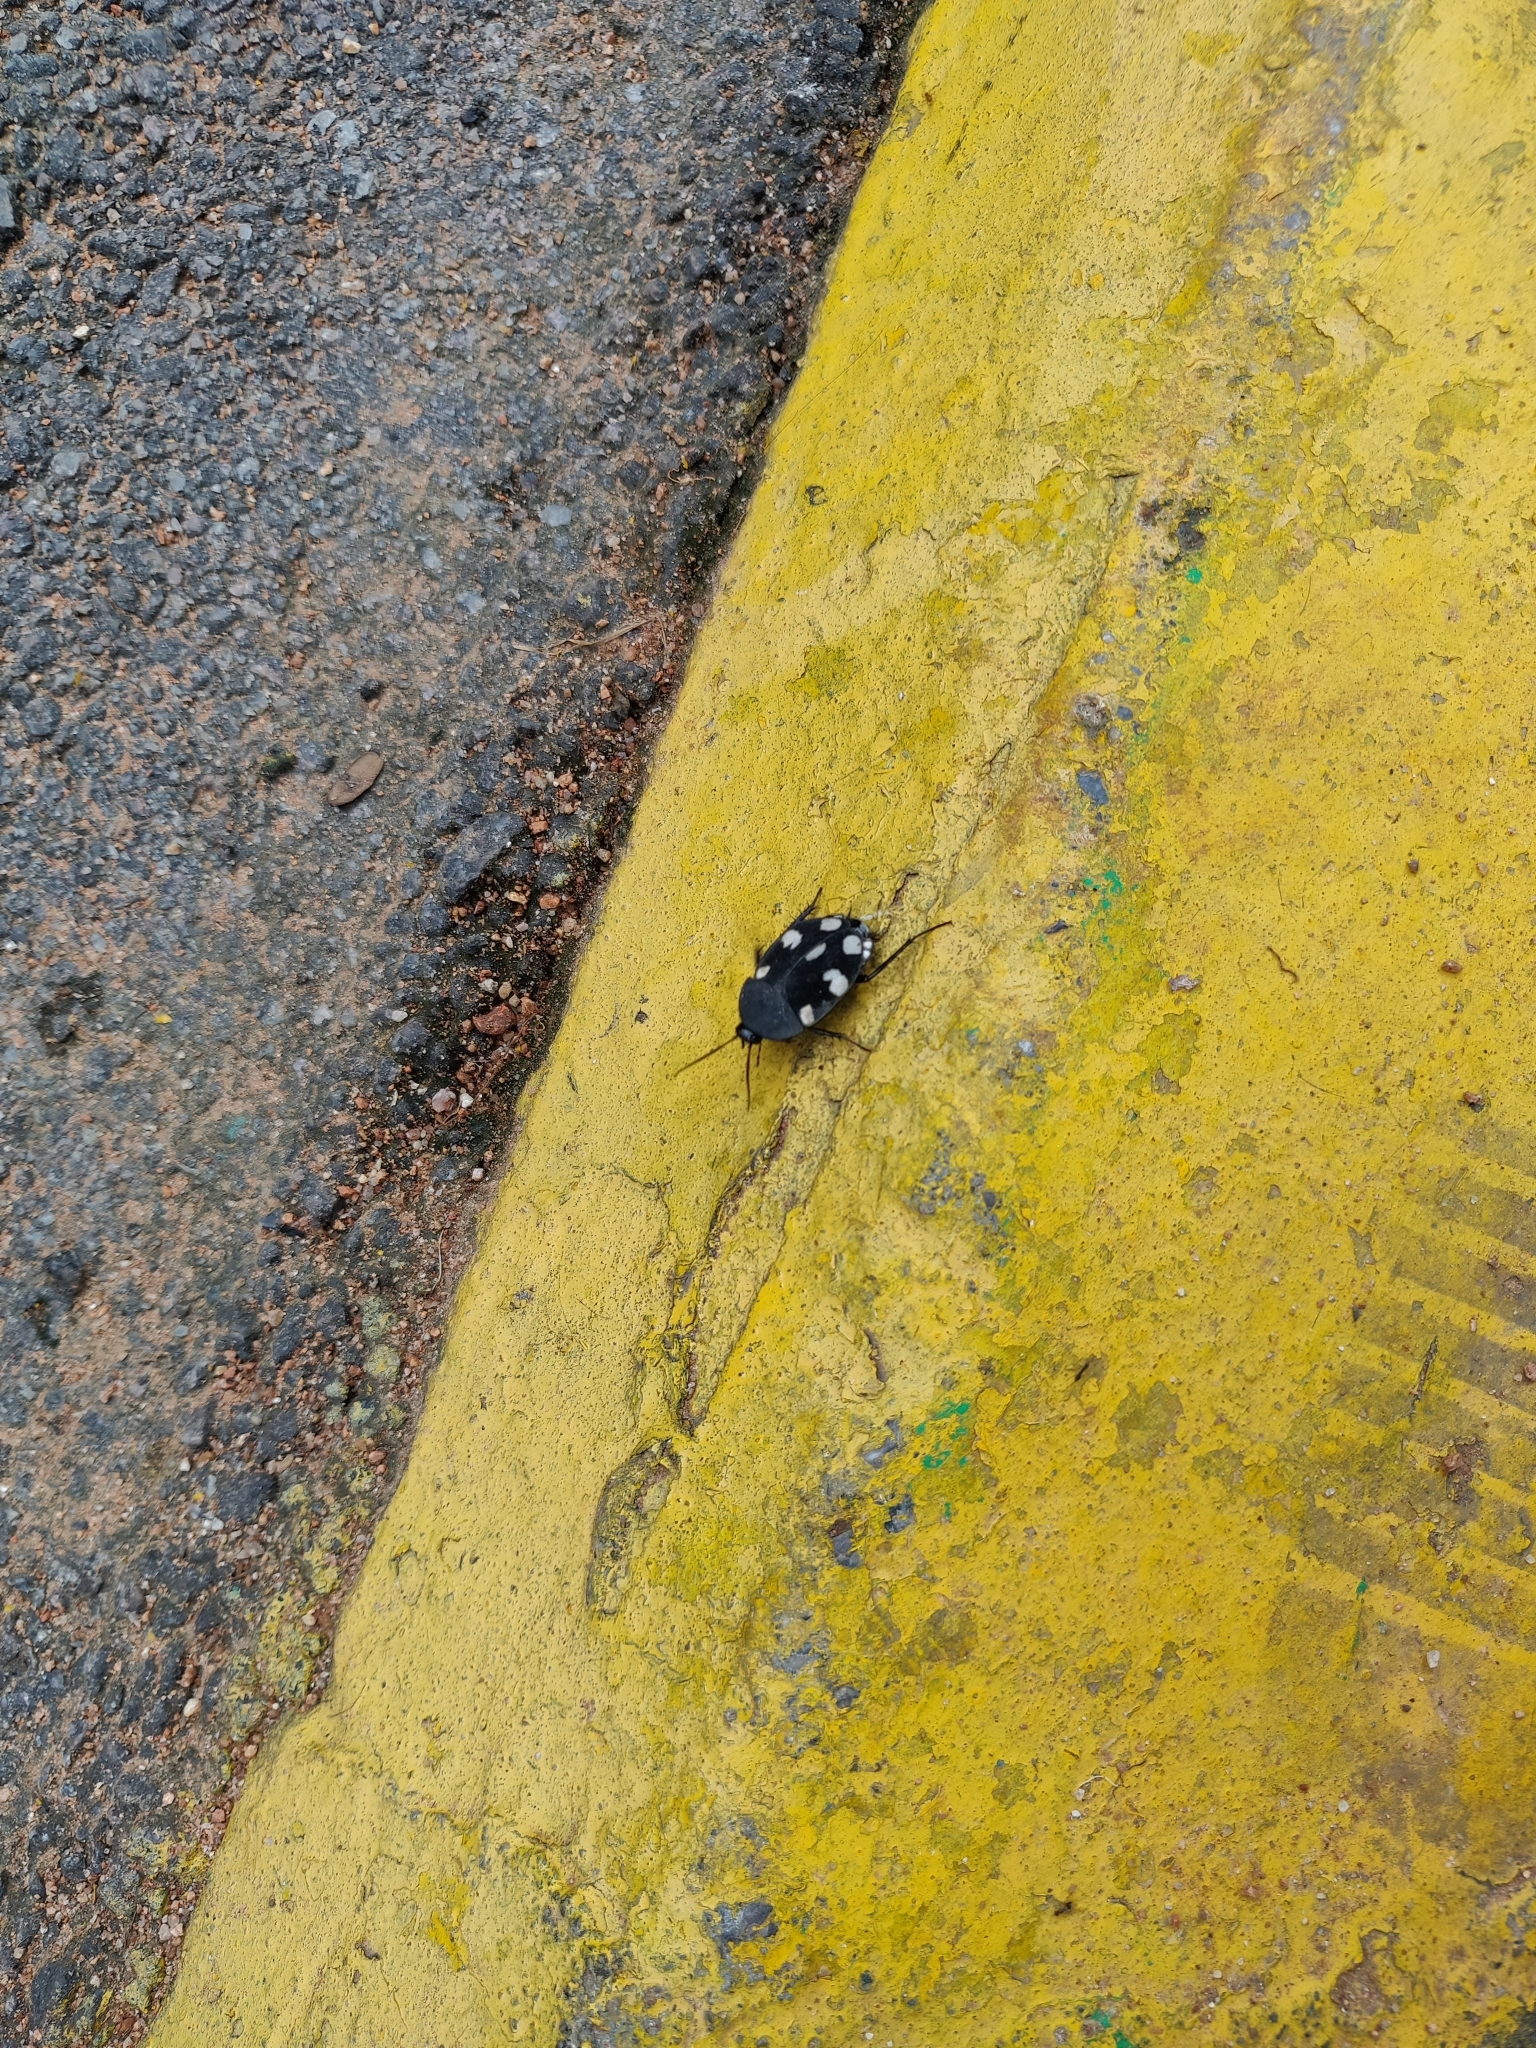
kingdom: Animalia
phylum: Arthropoda
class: Insecta
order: Blattodea
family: Corydiidae
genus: Therea
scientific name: Therea petiveriana
